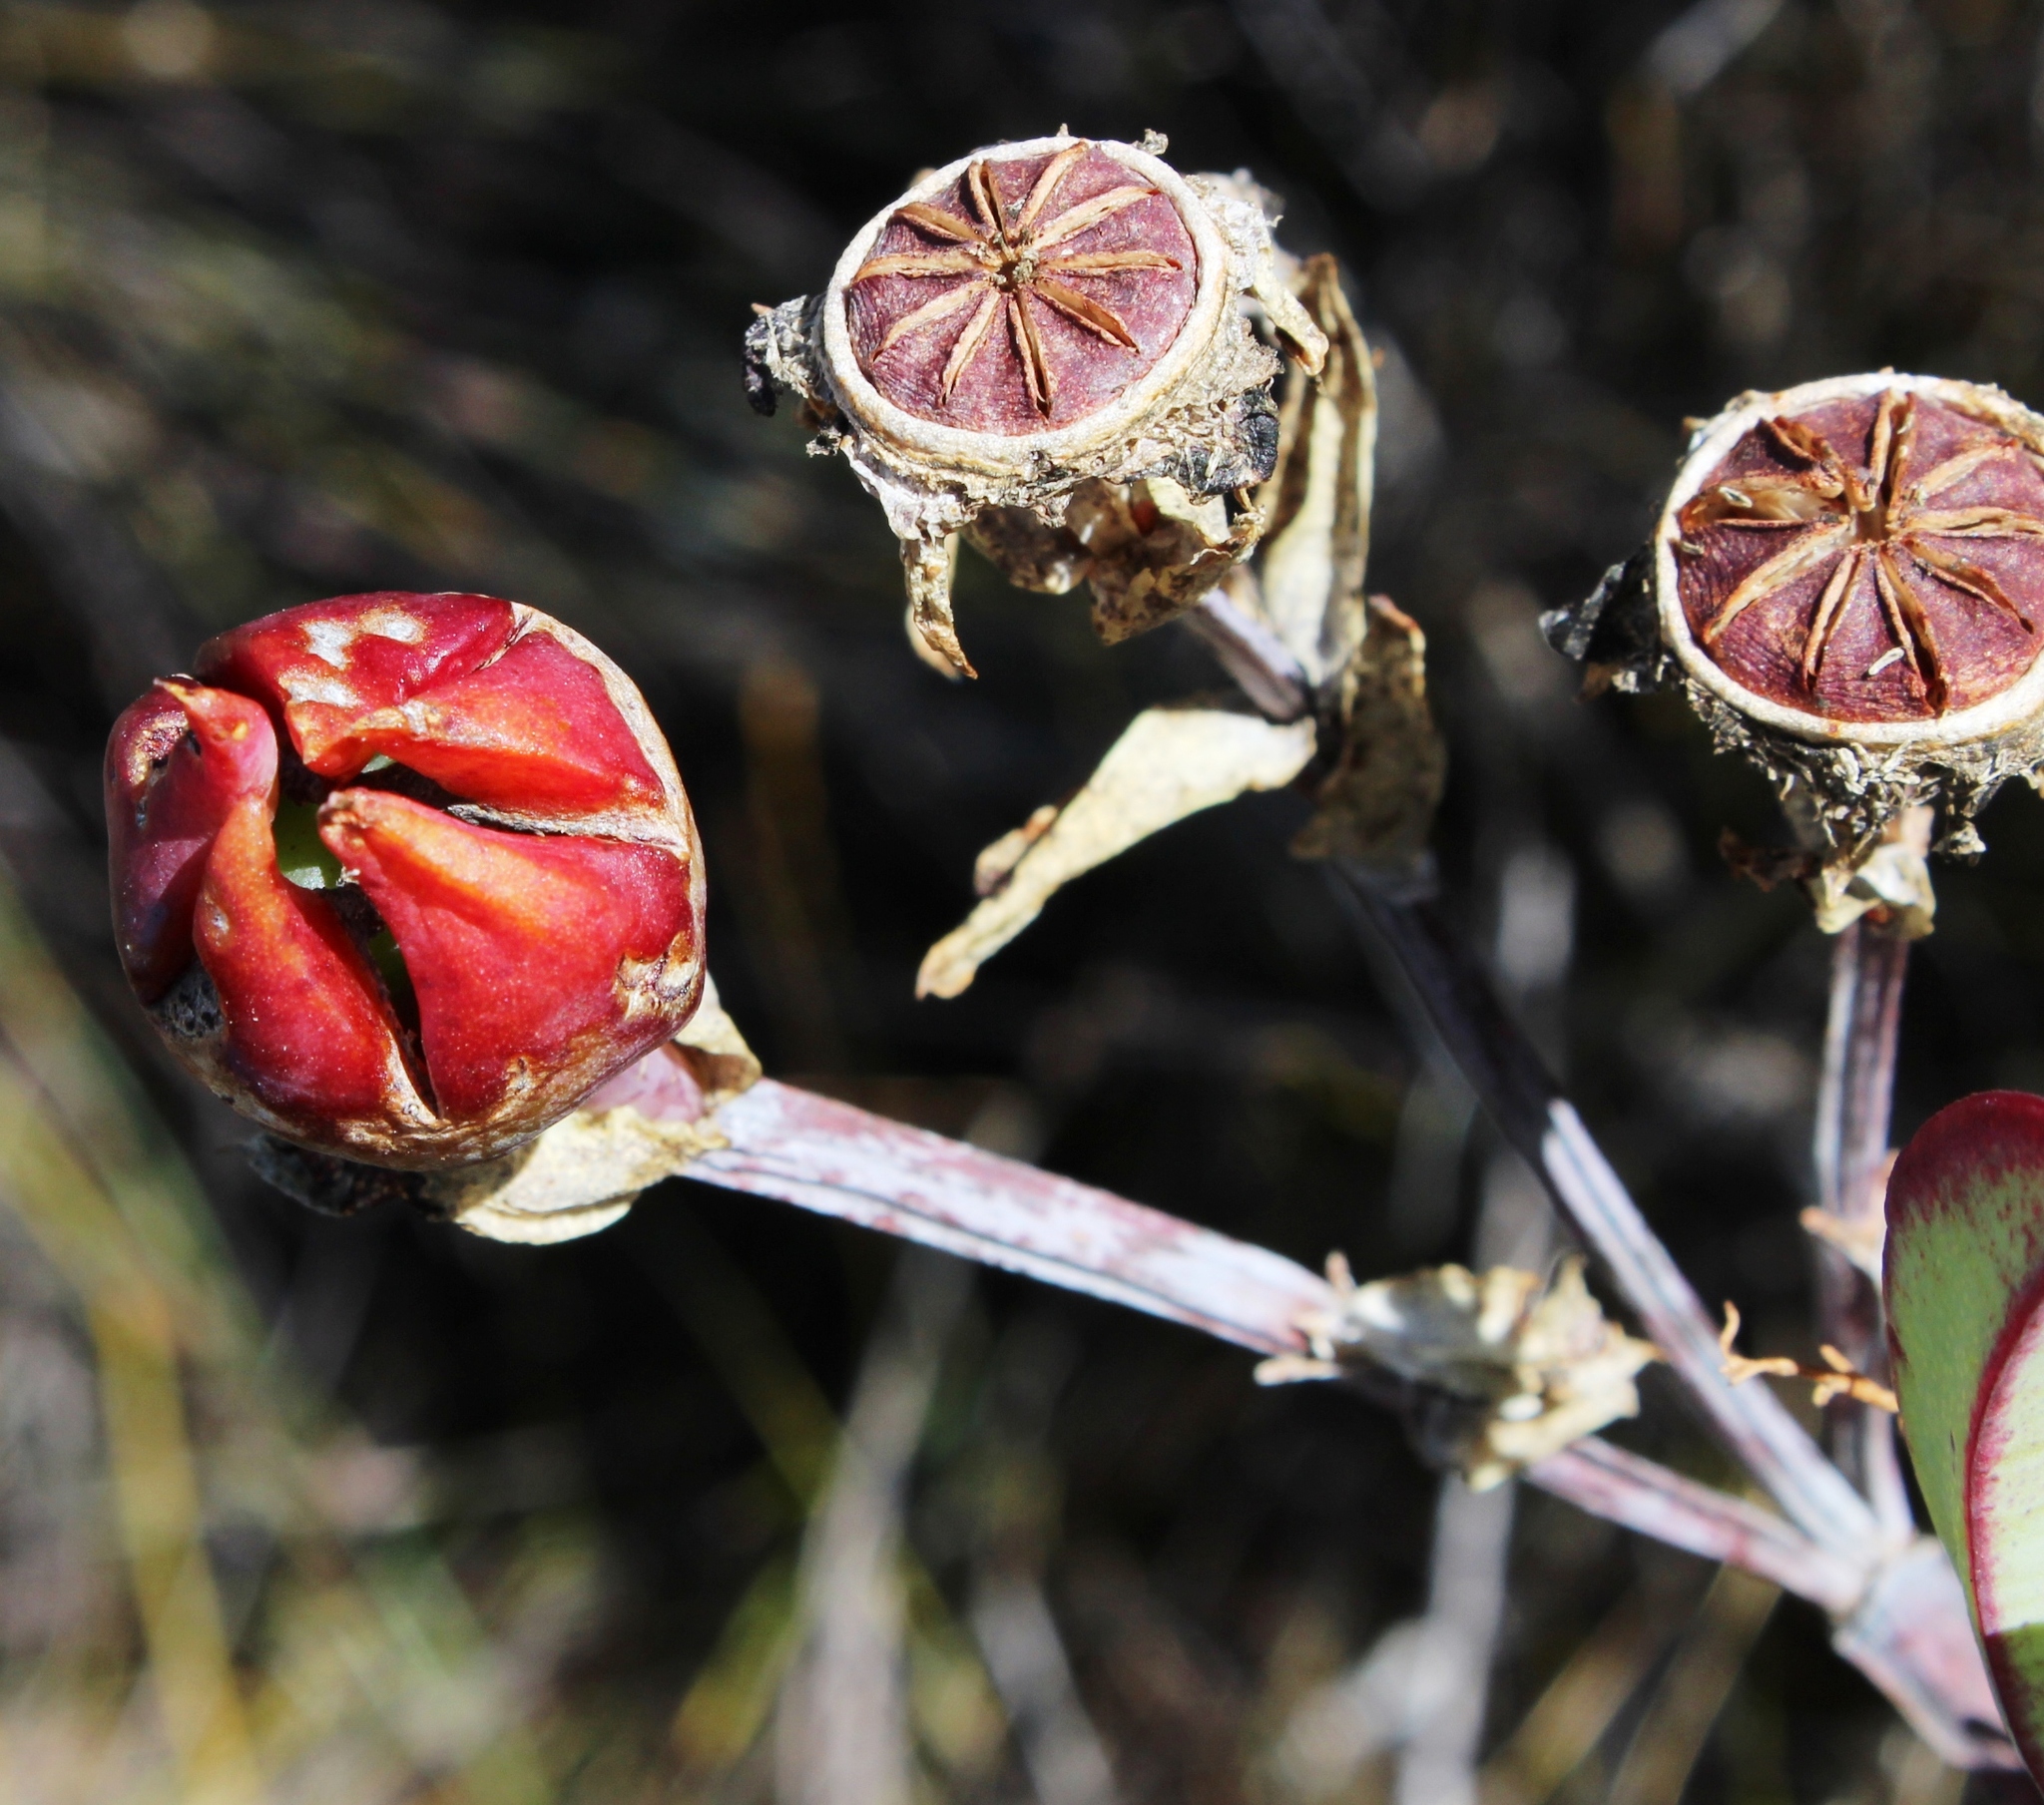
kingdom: Plantae
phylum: Tracheophyta
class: Magnoliopsida
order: Caryophyllales
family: Aizoaceae
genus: Erepsia
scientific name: Erepsia pillansii
